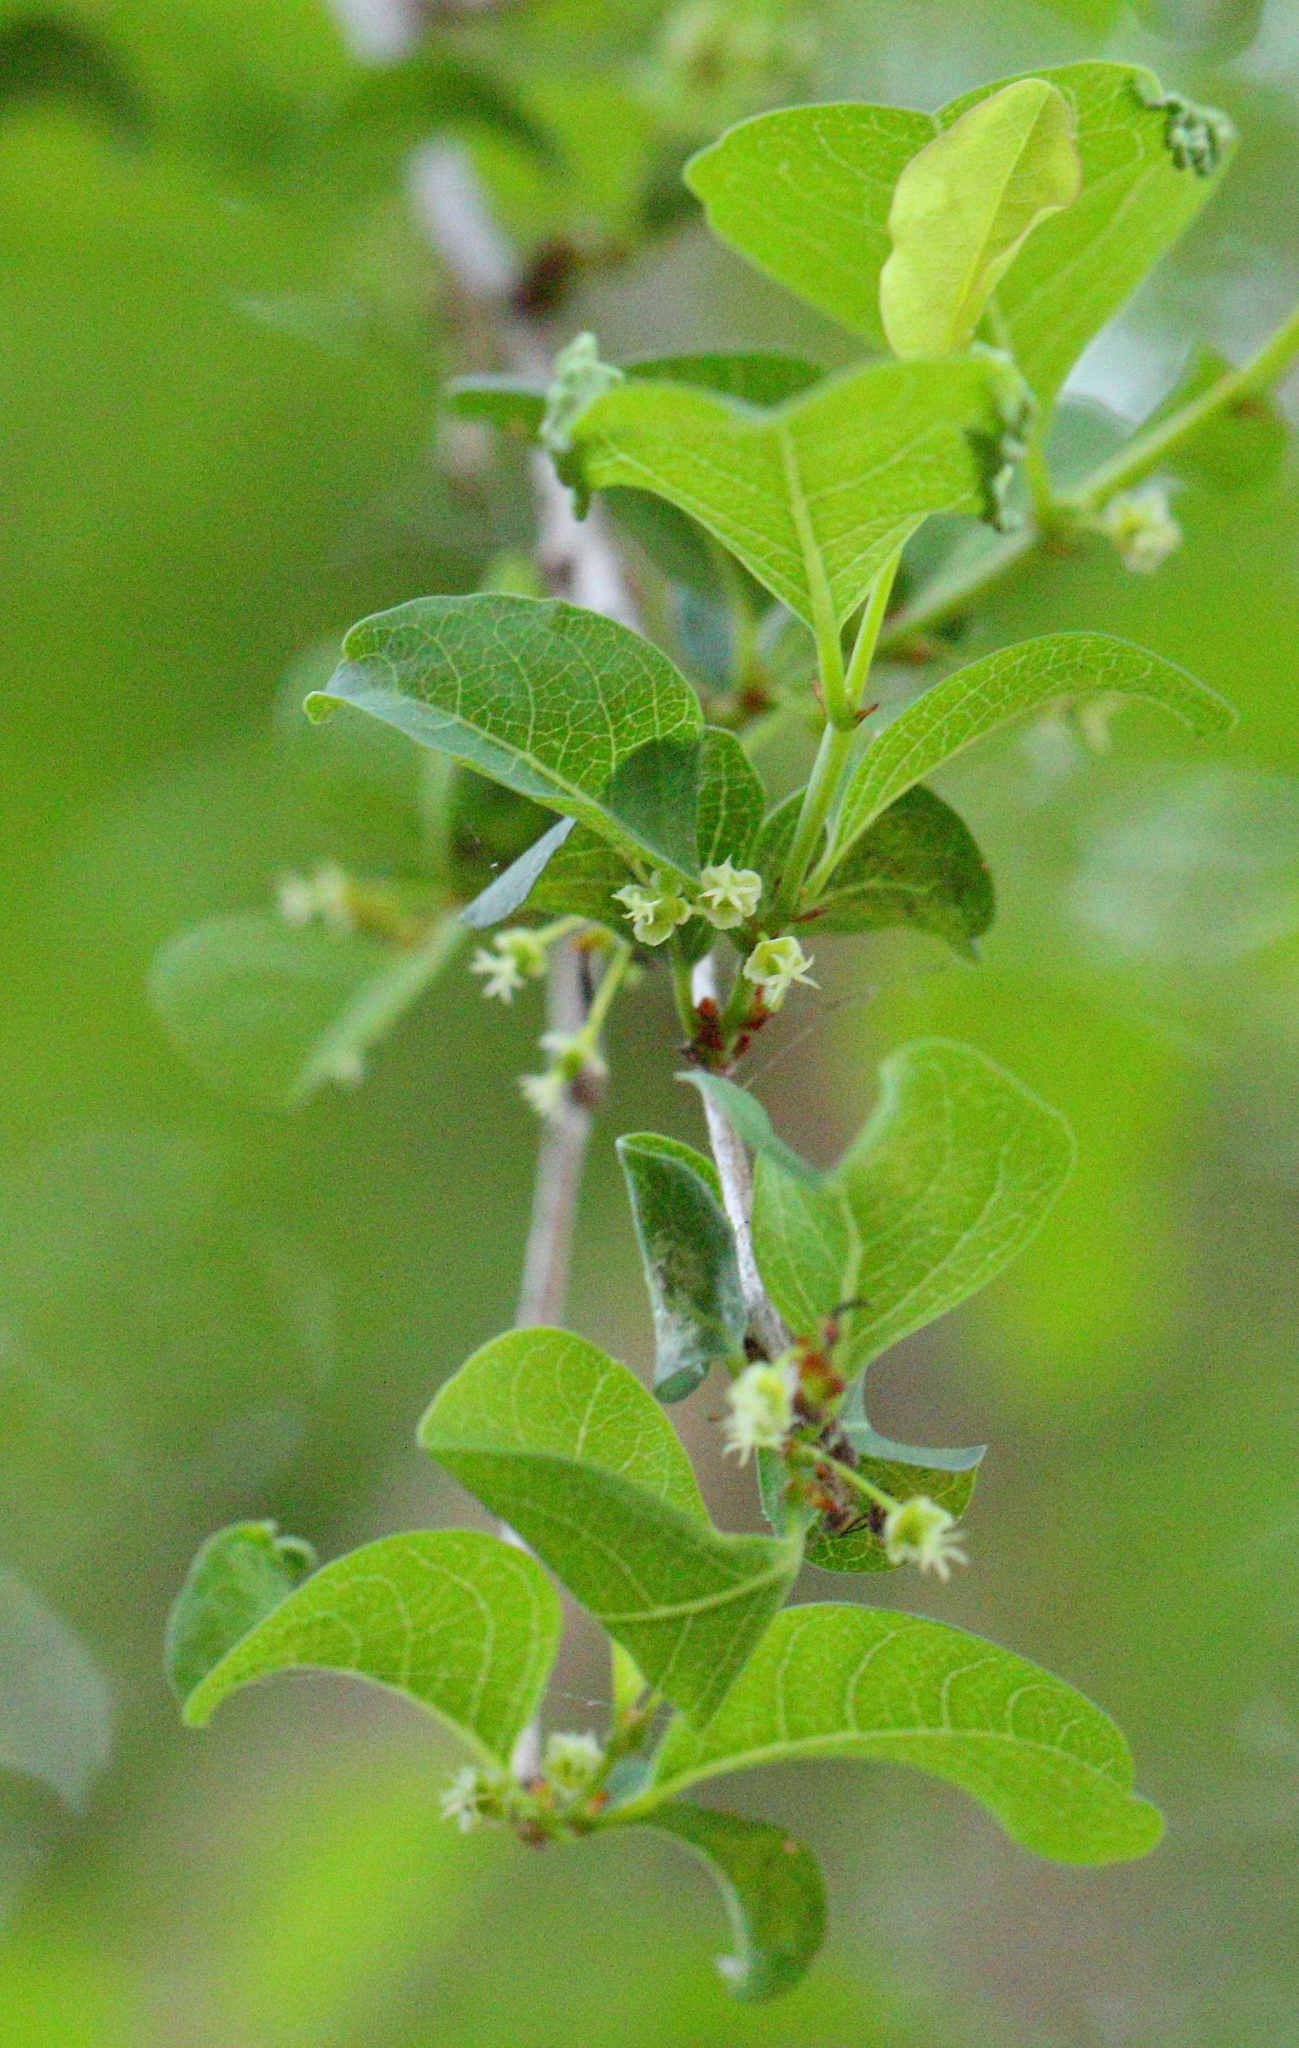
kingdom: Plantae
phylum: Tracheophyta
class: Magnoliopsida
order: Malpighiales
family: Phyllanthaceae
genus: Flueggea
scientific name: Flueggea virosa
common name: Common bushweed
